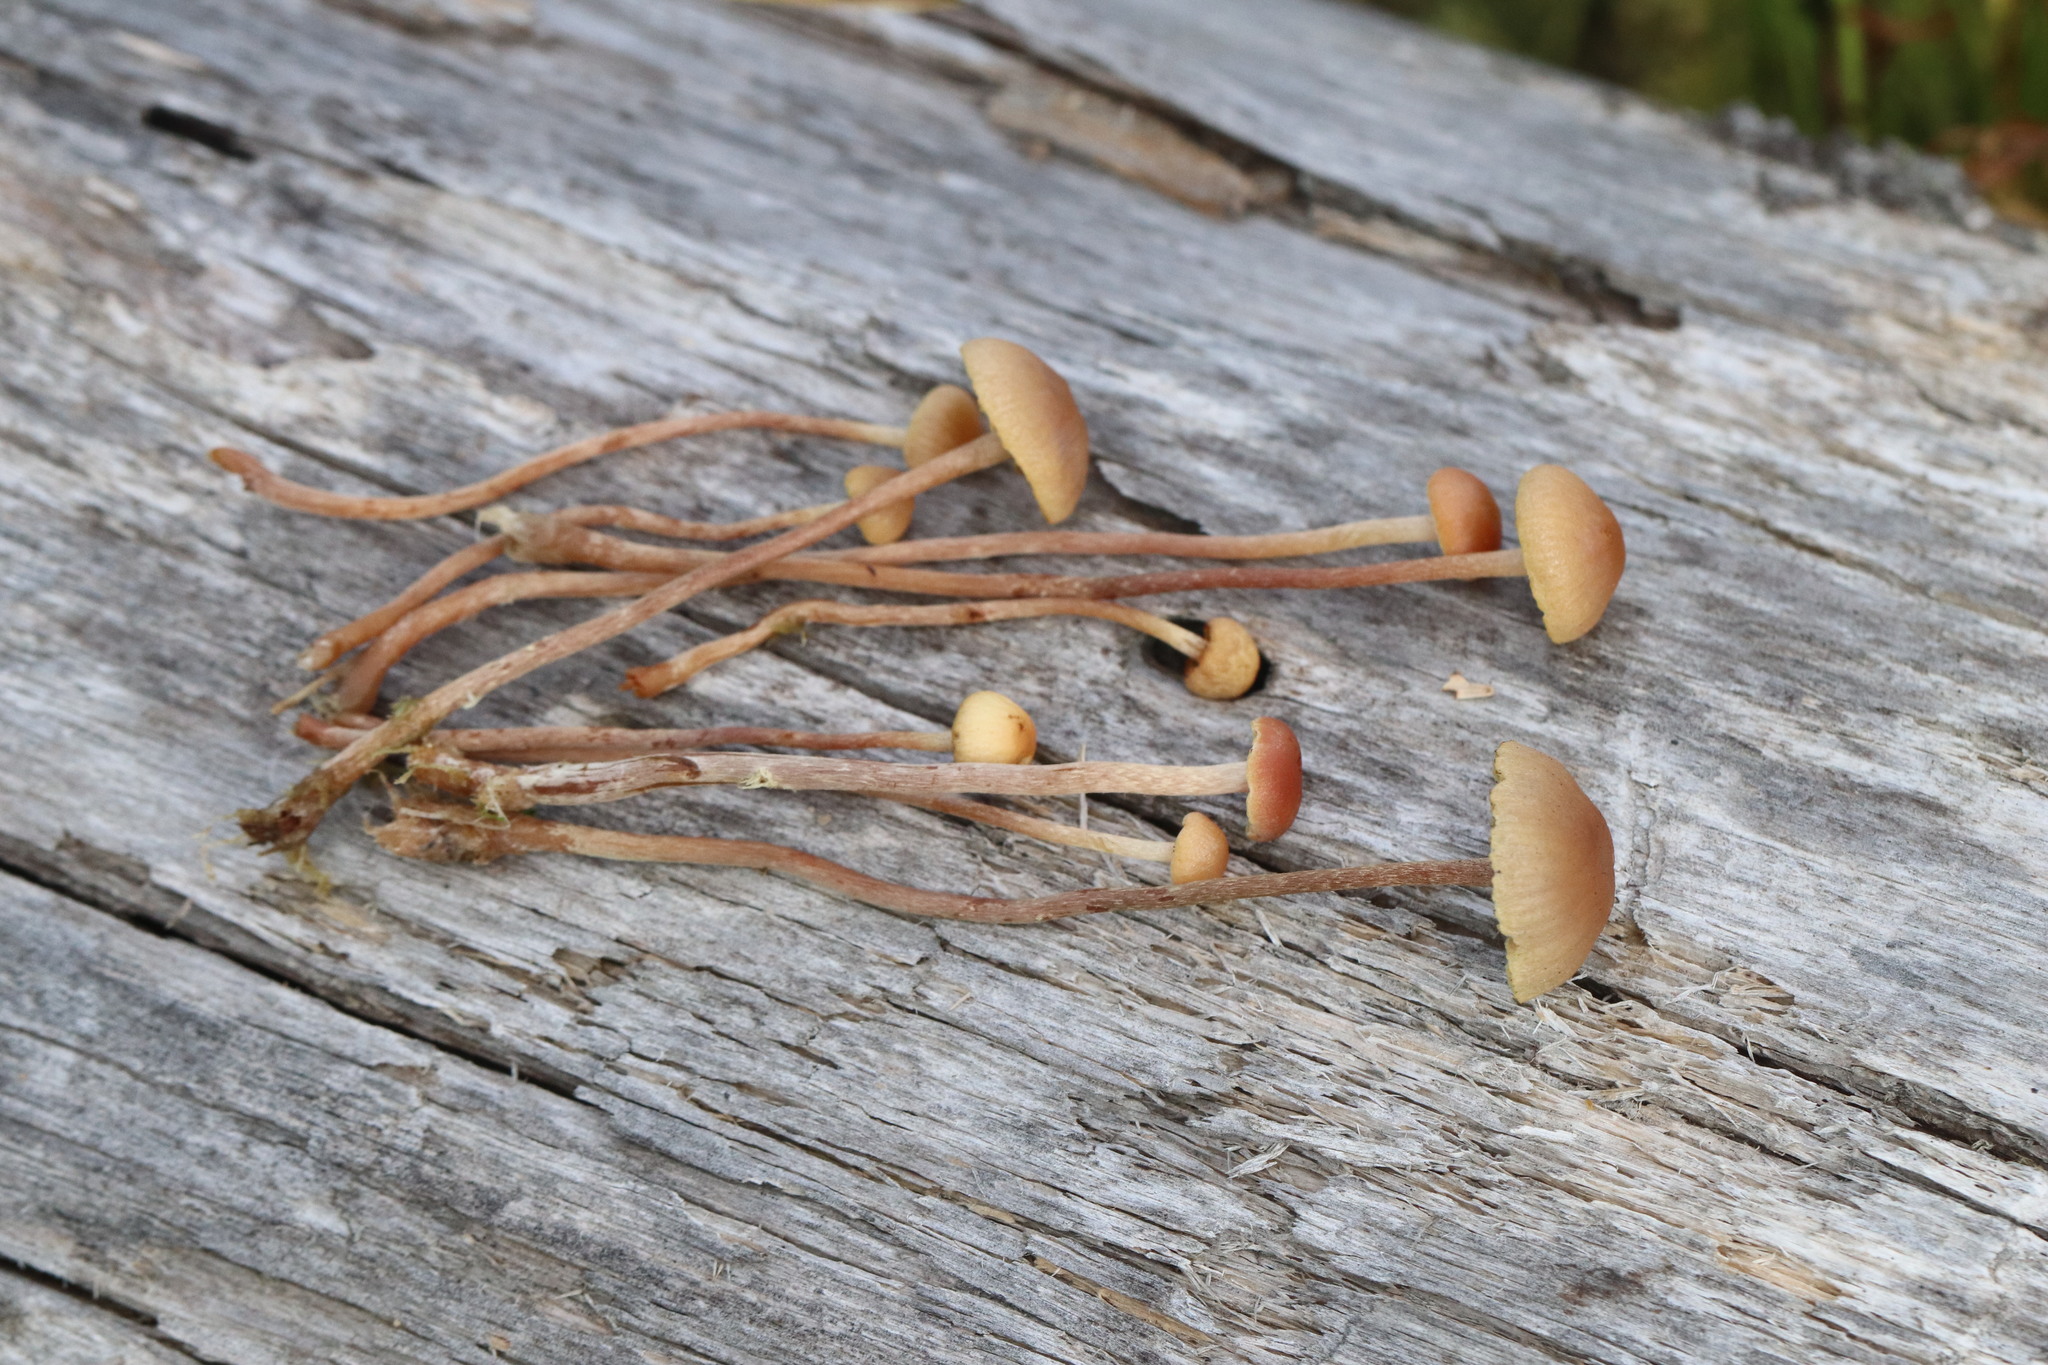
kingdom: Fungi
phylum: Basidiomycota
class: Agaricomycetes
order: Agaricales
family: Strophariaceae
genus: Bogbodia
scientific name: Bogbodia uda
